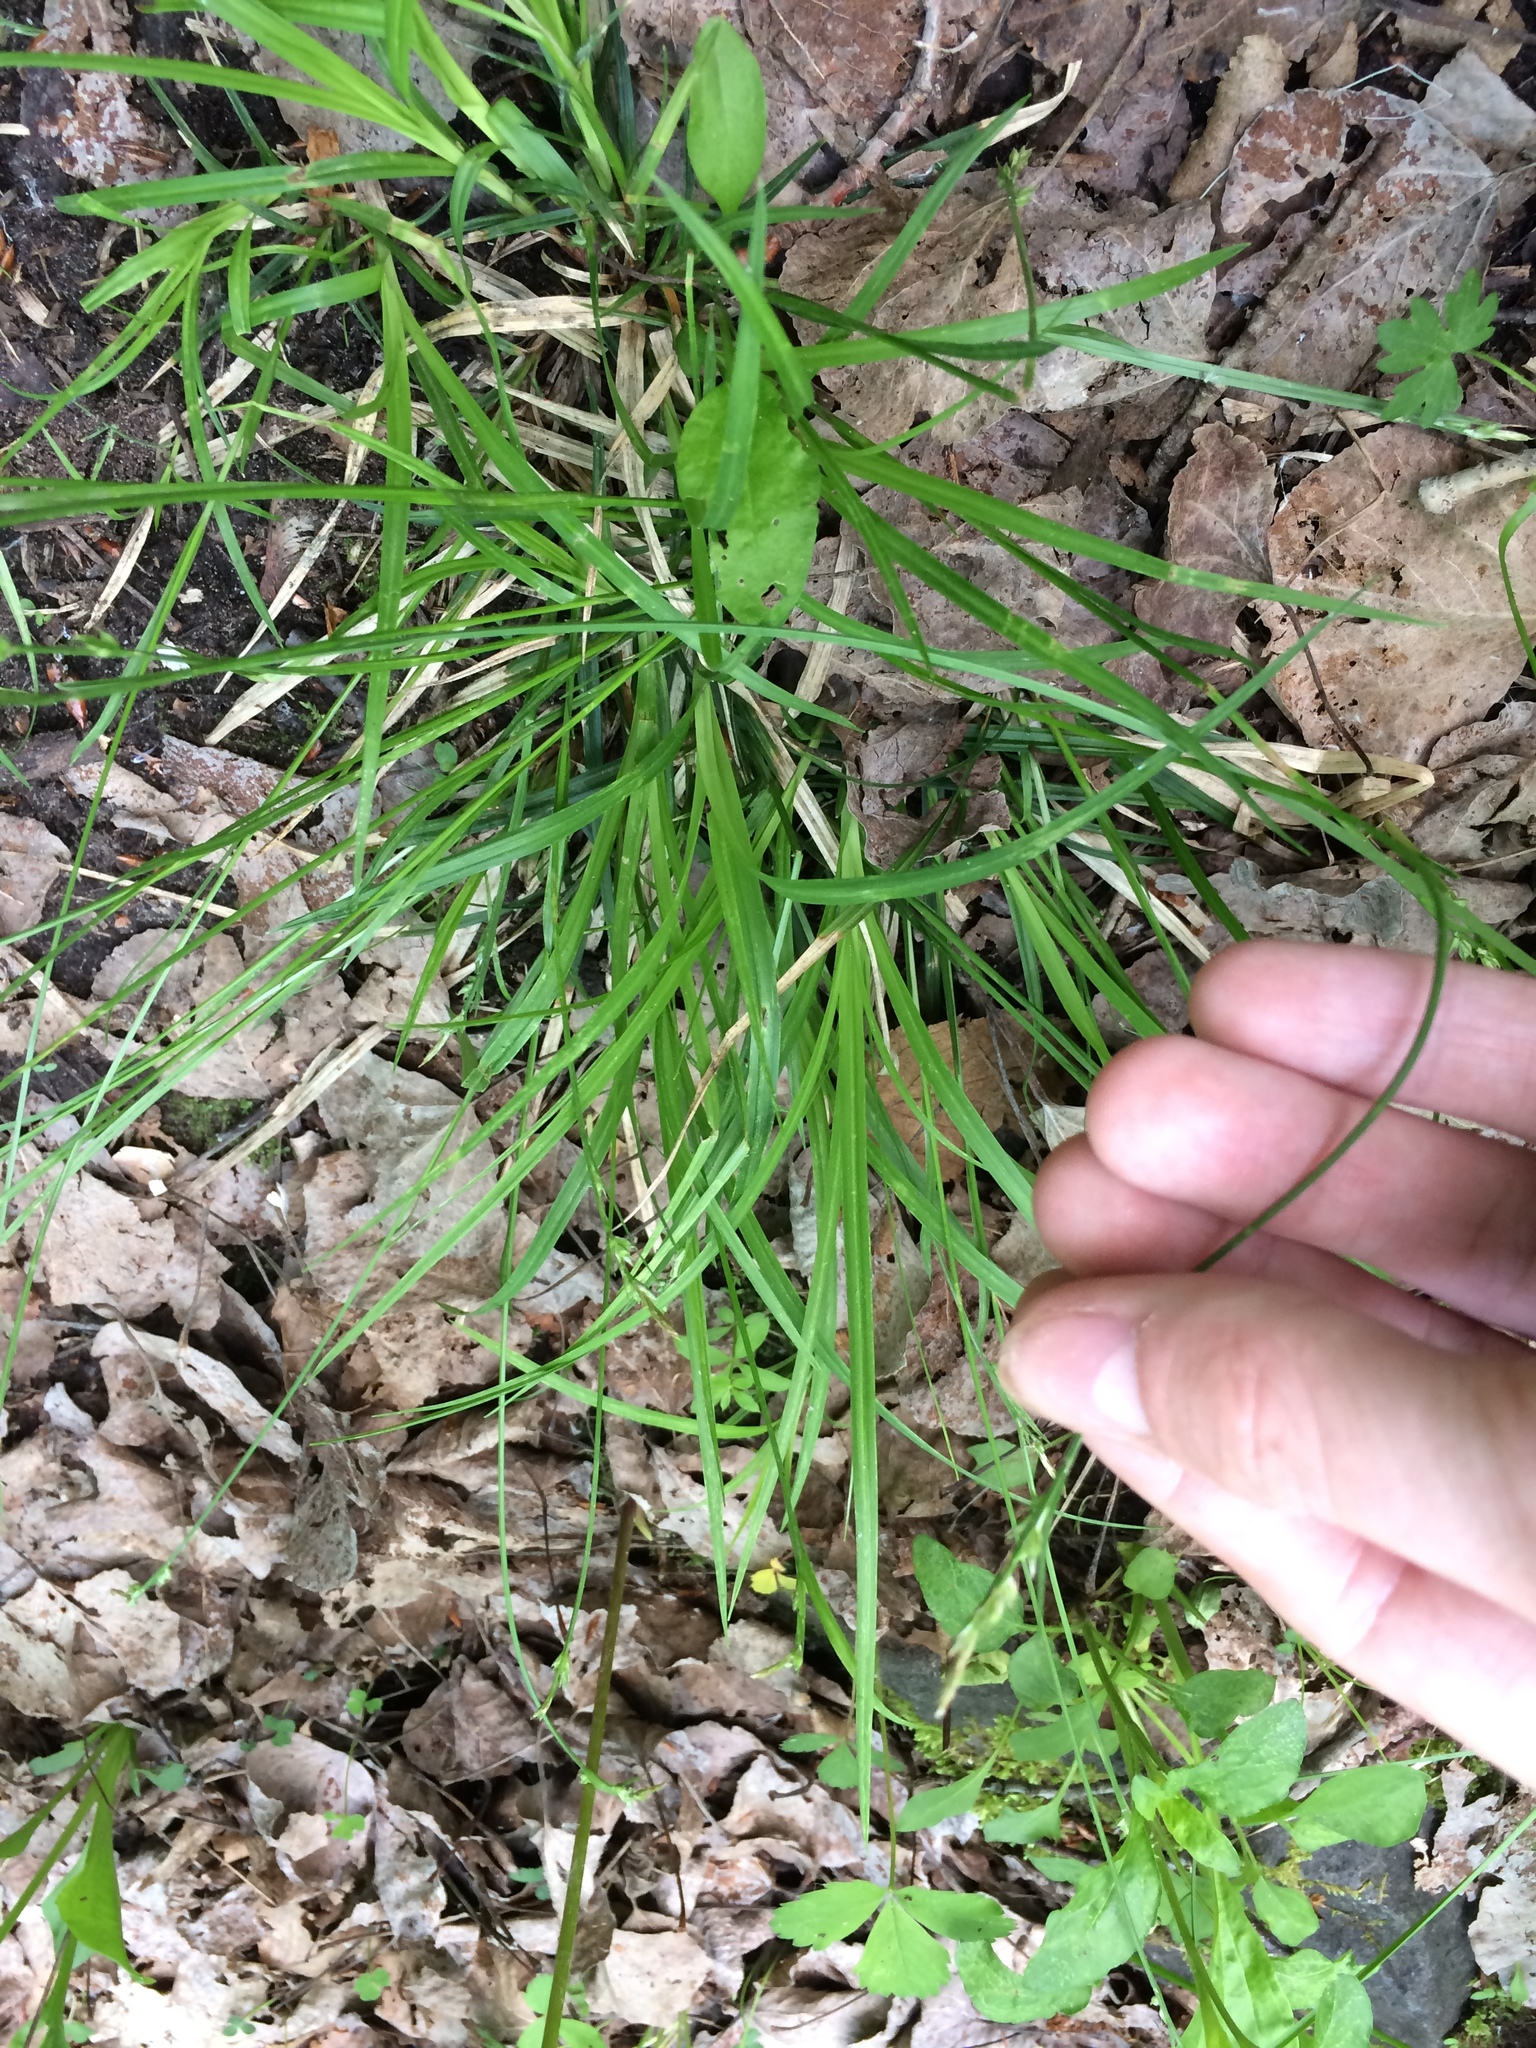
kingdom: Plantae
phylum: Tracheophyta
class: Liliopsida
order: Poales
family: Cyperaceae
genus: Carex
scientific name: Carex communis
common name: Colonial oak sedge
